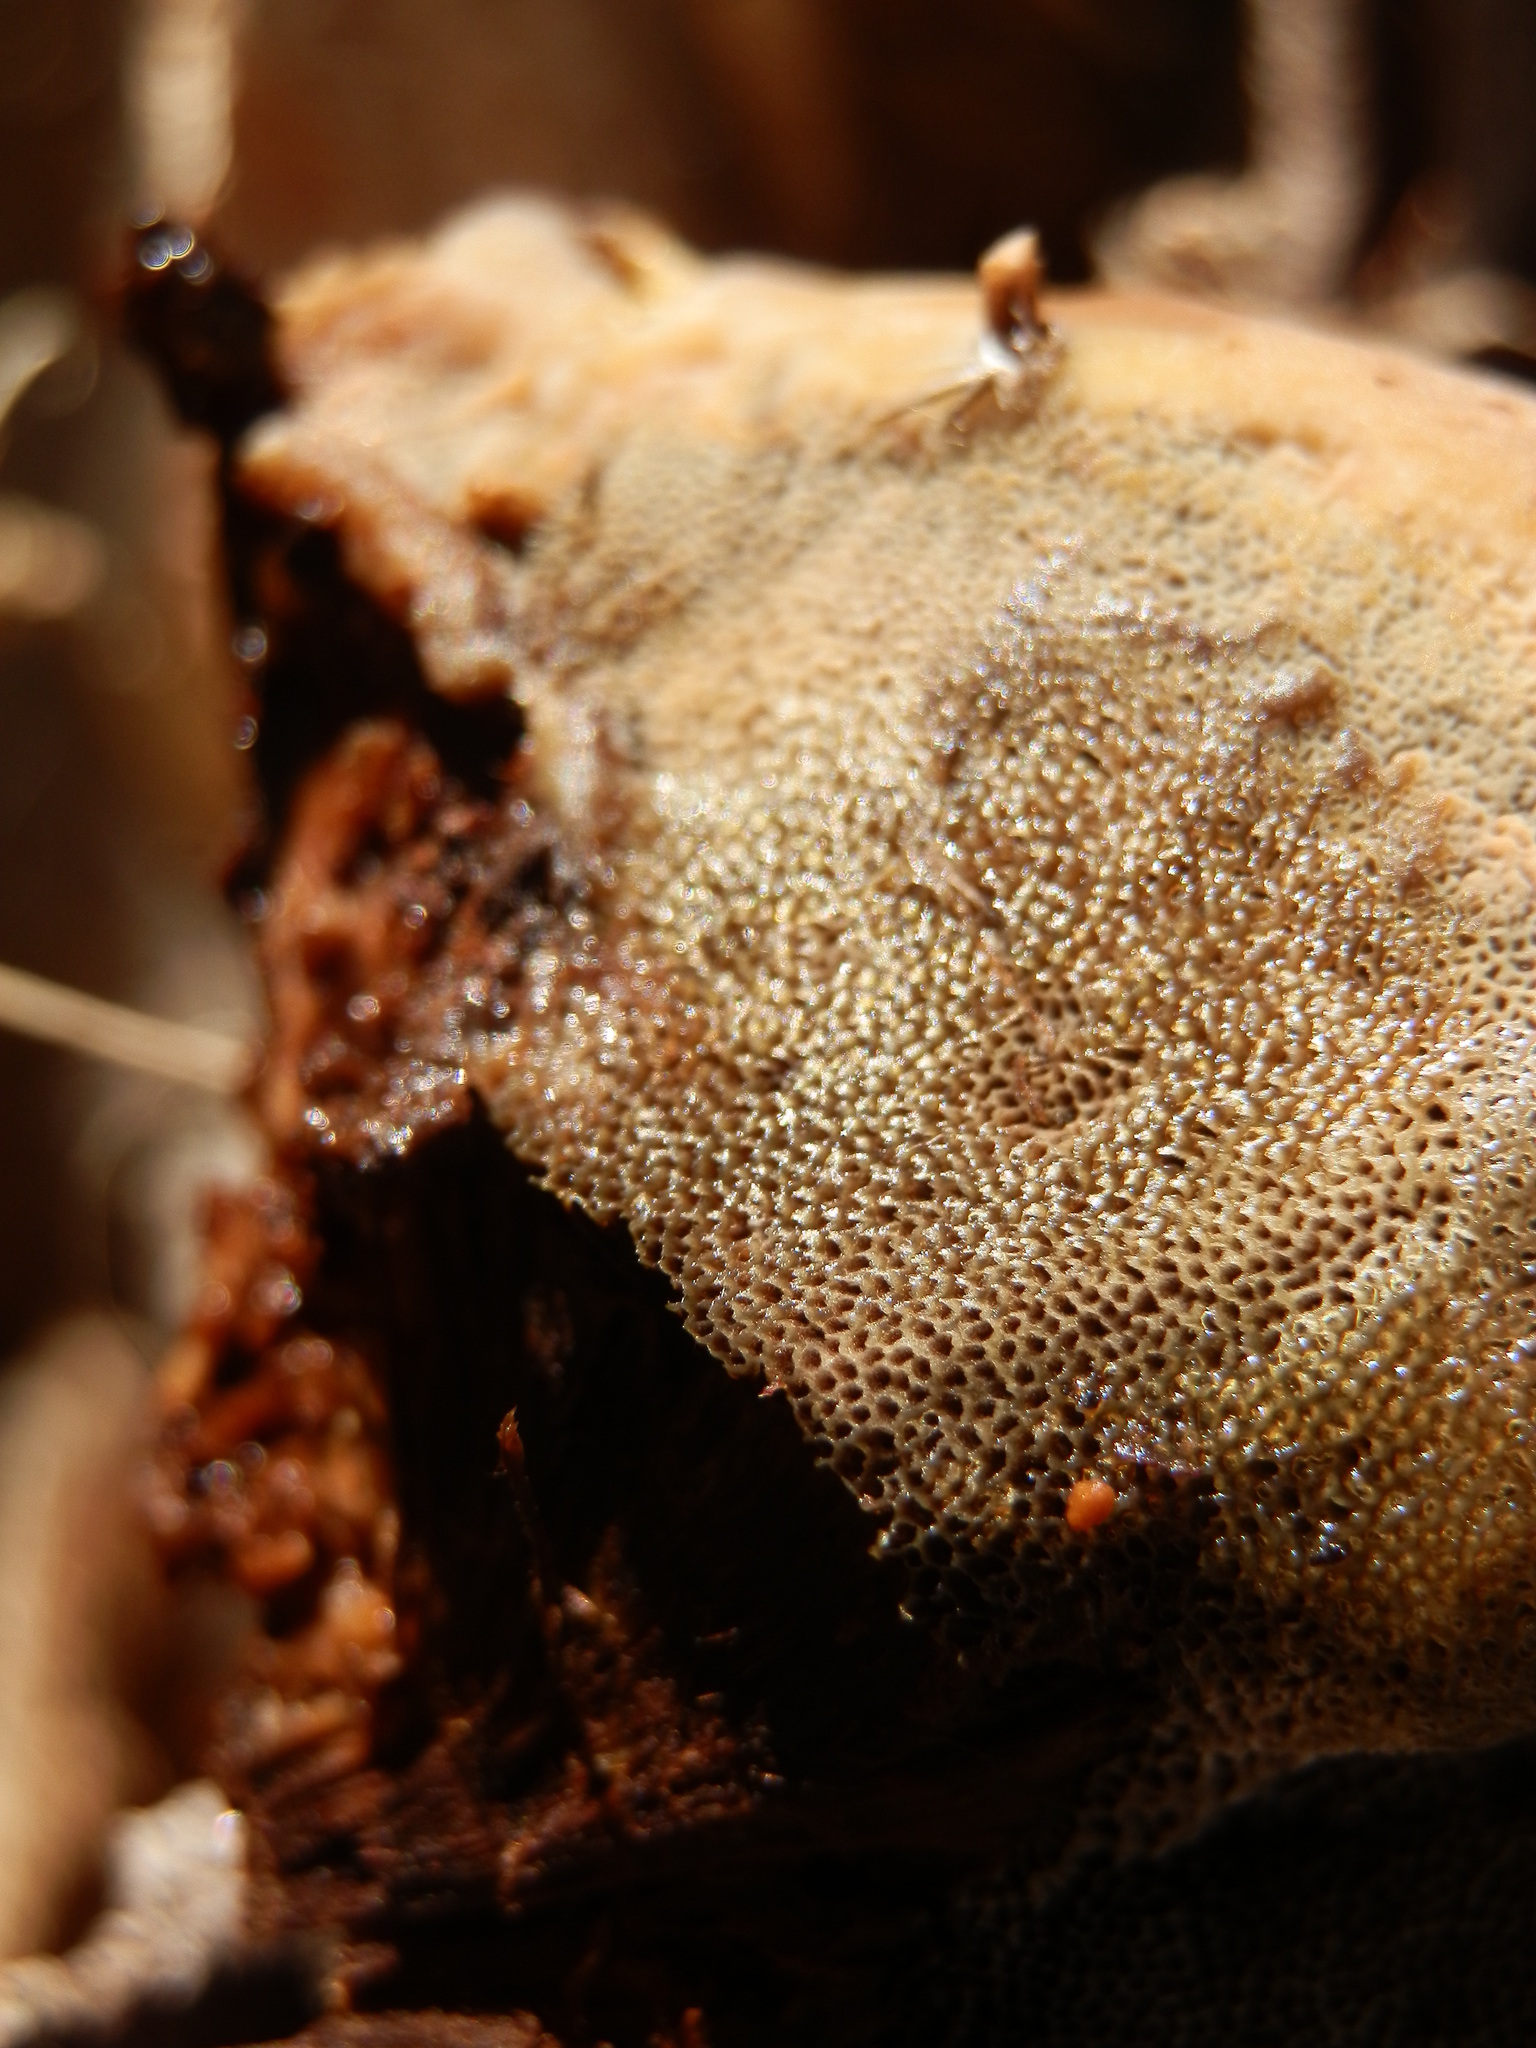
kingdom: Fungi
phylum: Basidiomycota
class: Agaricomycetes
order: Polyporales
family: Polyporaceae
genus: Coriolopsis
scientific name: Coriolopsis gallica
